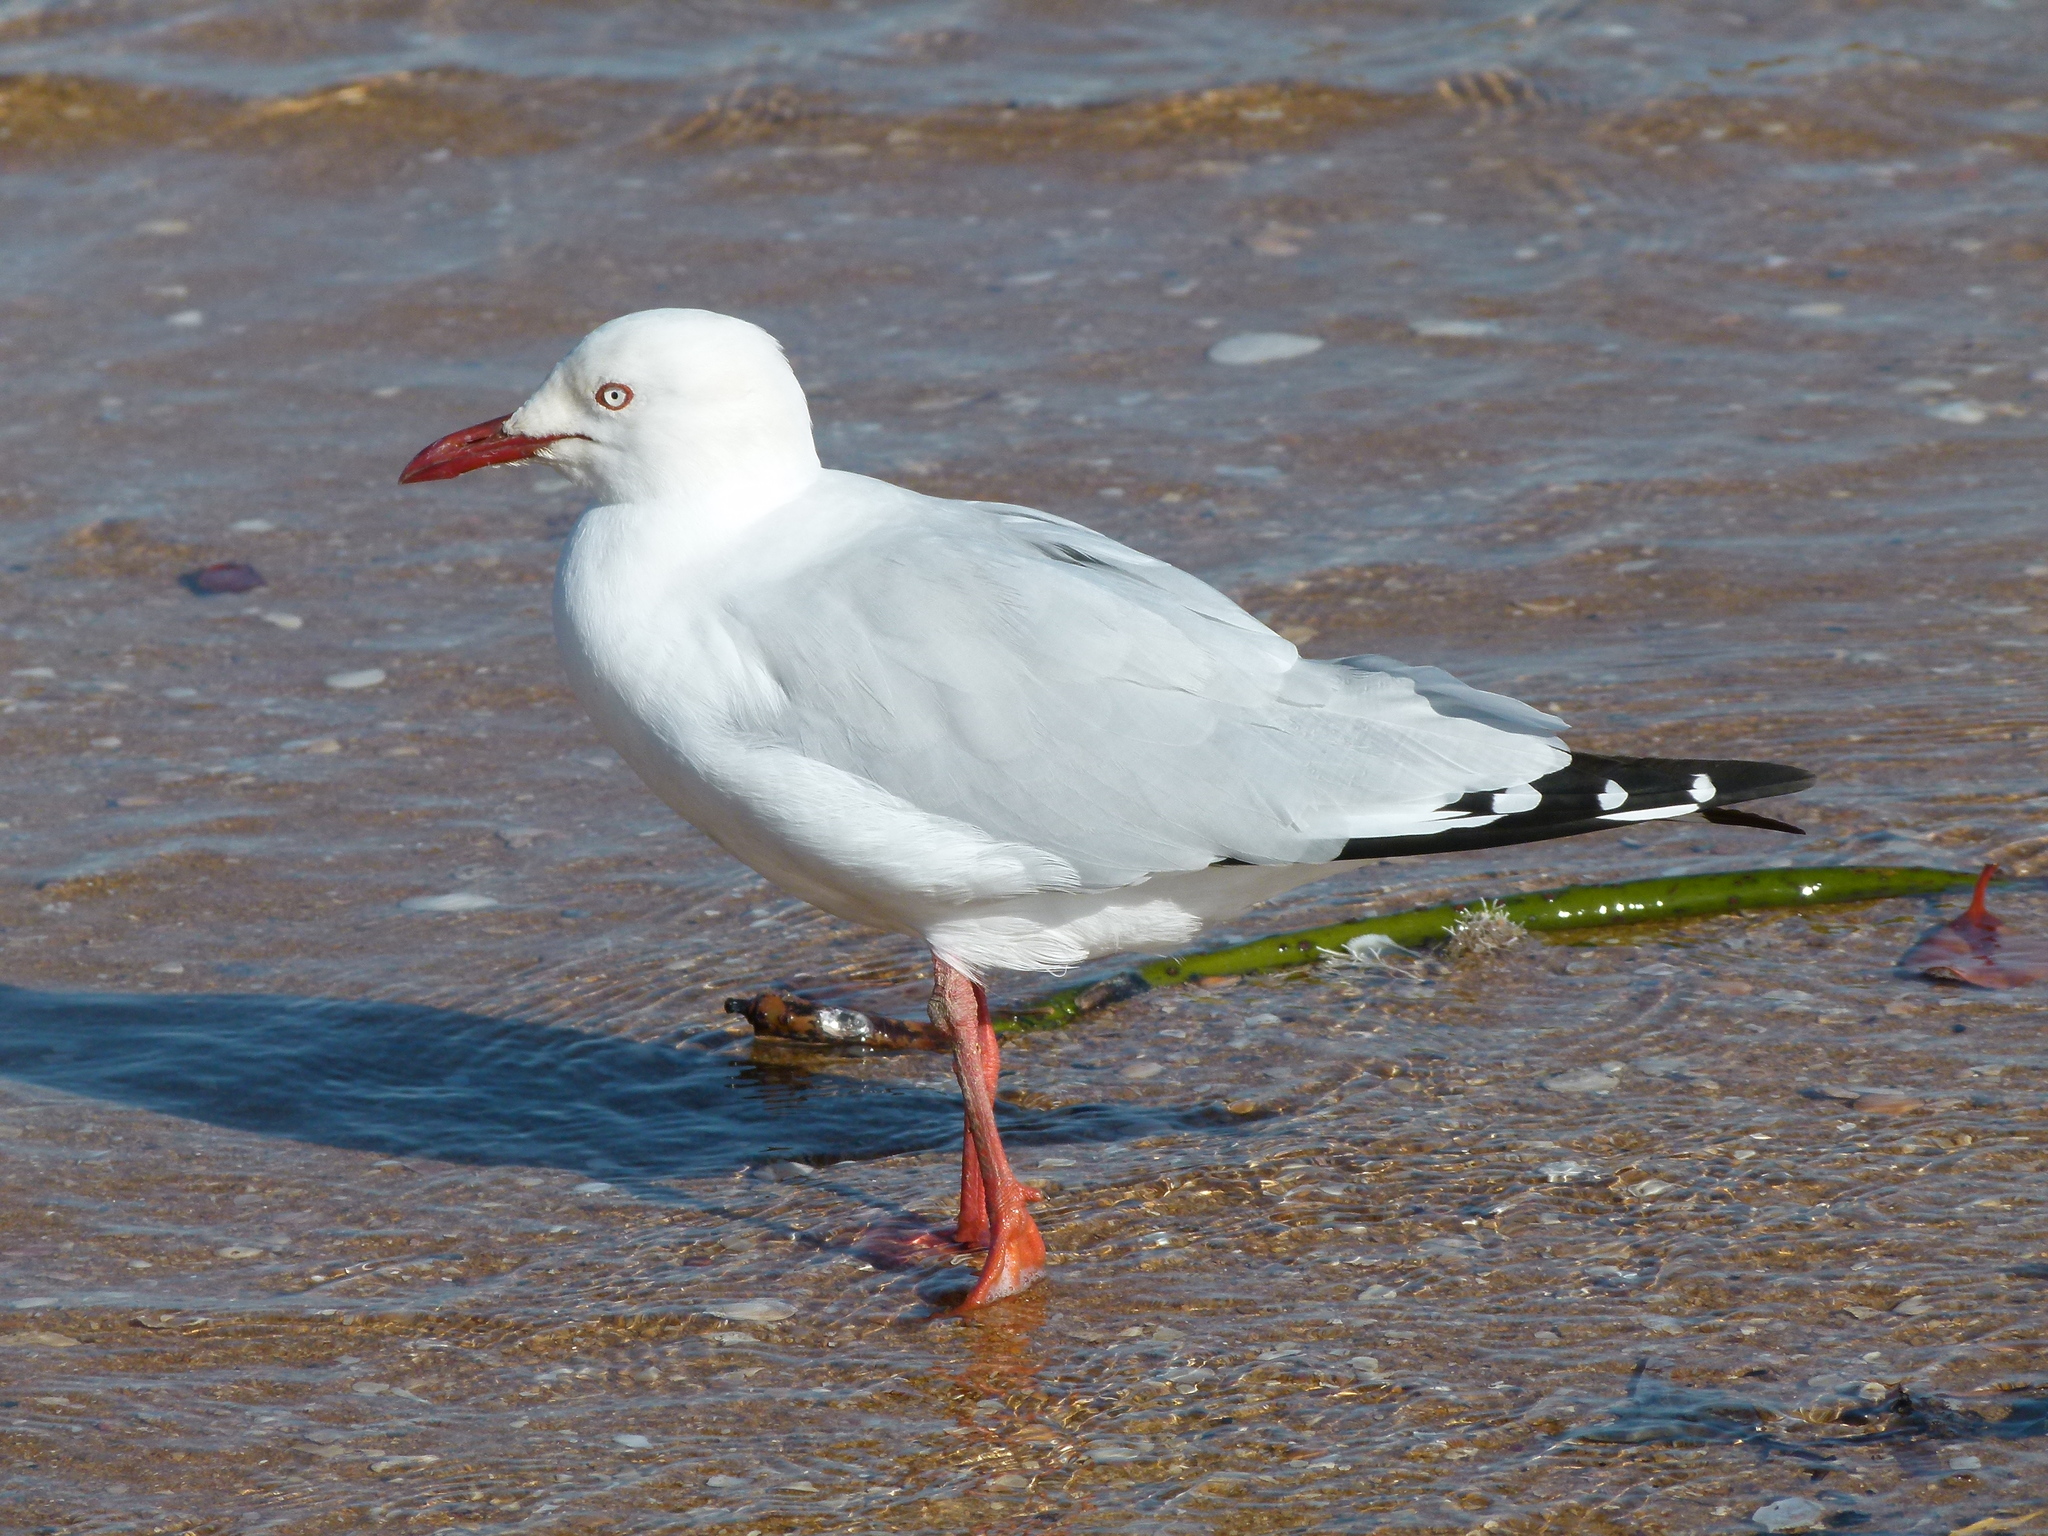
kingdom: Animalia
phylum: Chordata
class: Aves
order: Charadriiformes
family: Laridae
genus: Chroicocephalus
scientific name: Chroicocephalus novaehollandiae
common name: Silver gull
